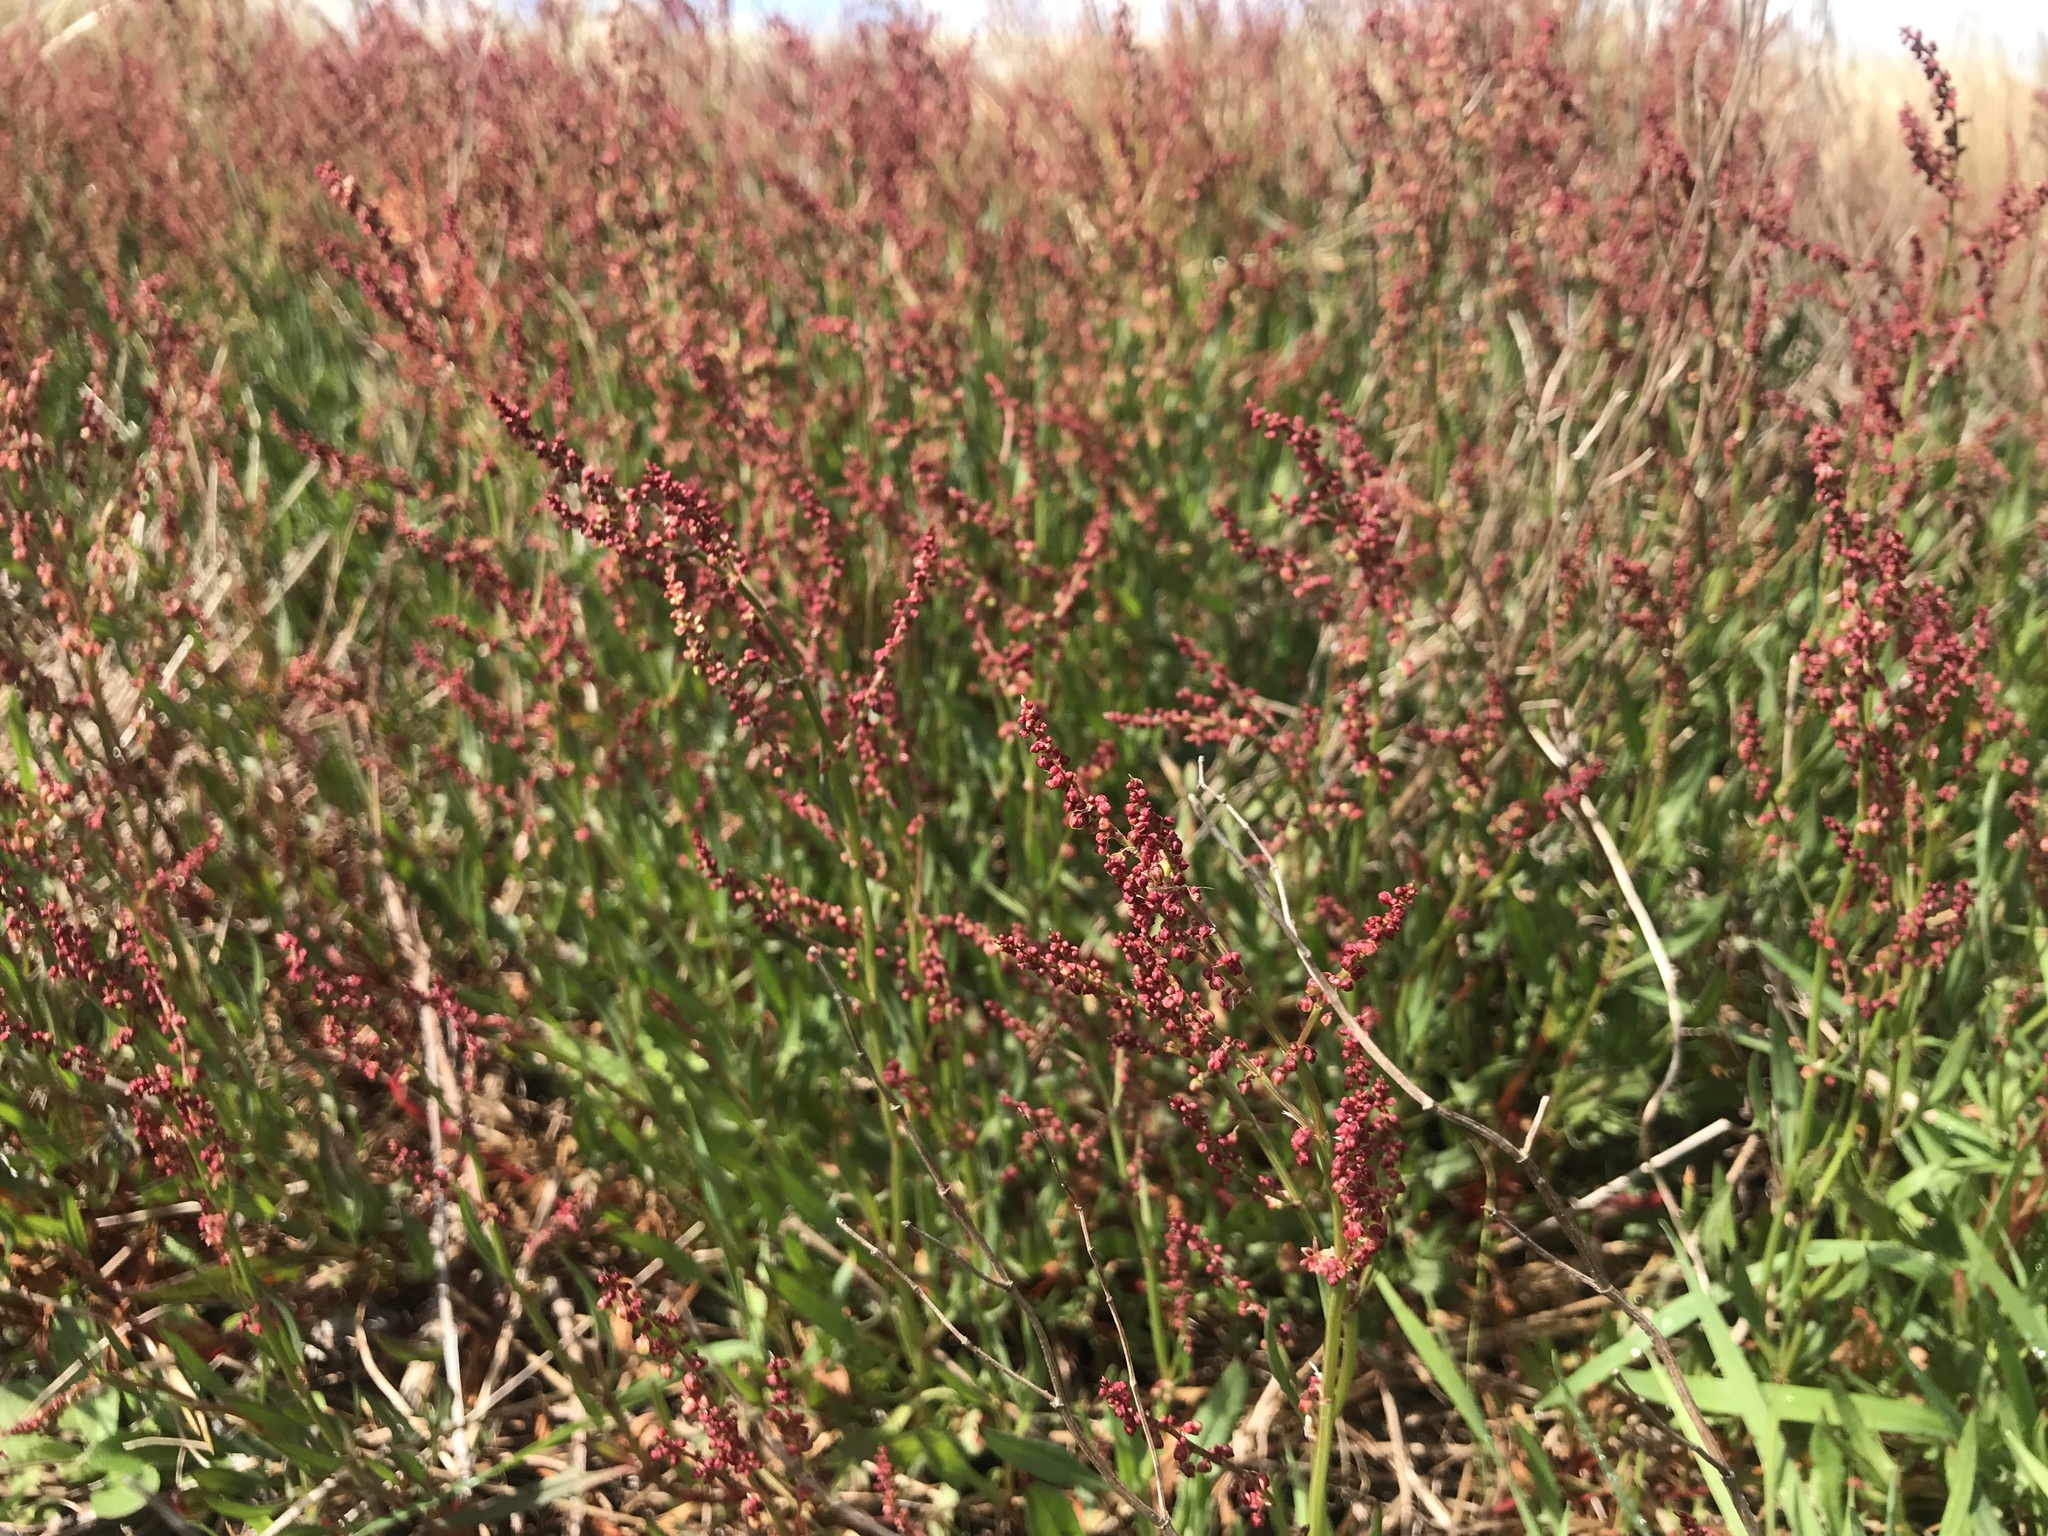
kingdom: Plantae
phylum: Tracheophyta
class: Magnoliopsida
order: Caryophyllales
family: Polygonaceae
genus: Rumex
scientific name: Rumex acetosella
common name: Common sheep sorrel
